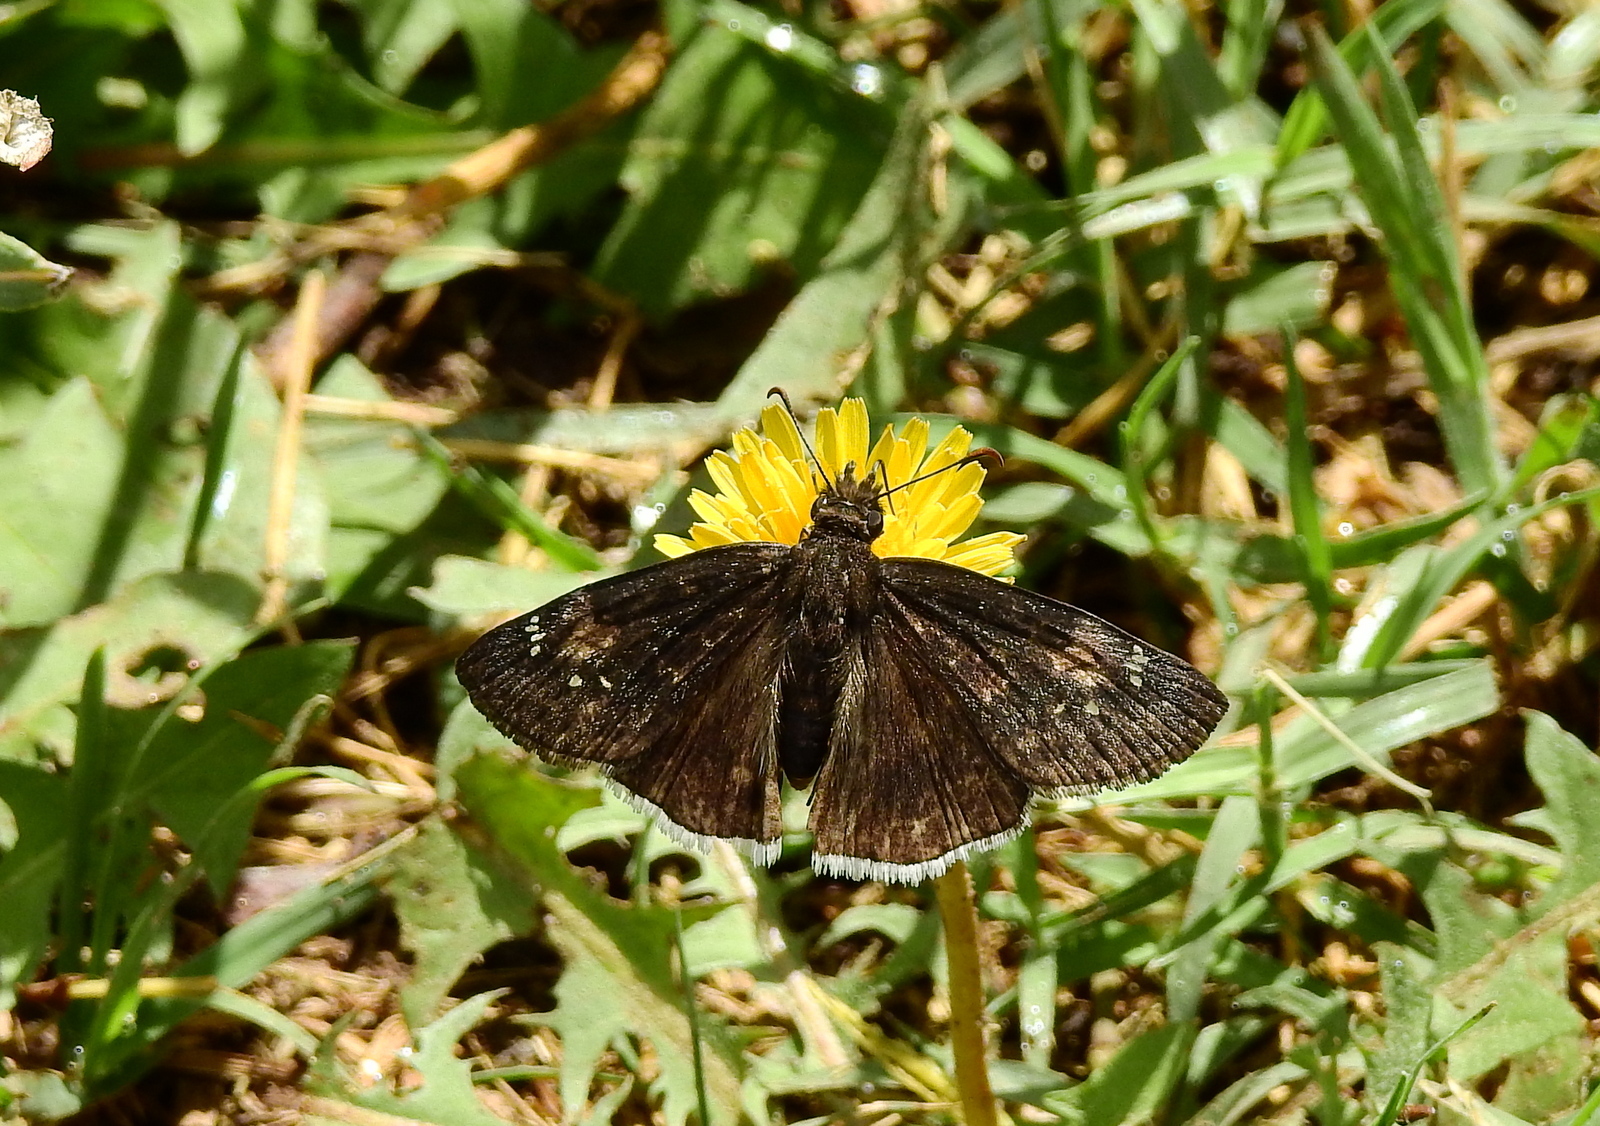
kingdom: Animalia
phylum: Arthropoda
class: Insecta
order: Lepidoptera
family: Hesperiidae
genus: Erynnis
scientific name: Erynnis funeralis
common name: Funereal duskywing
